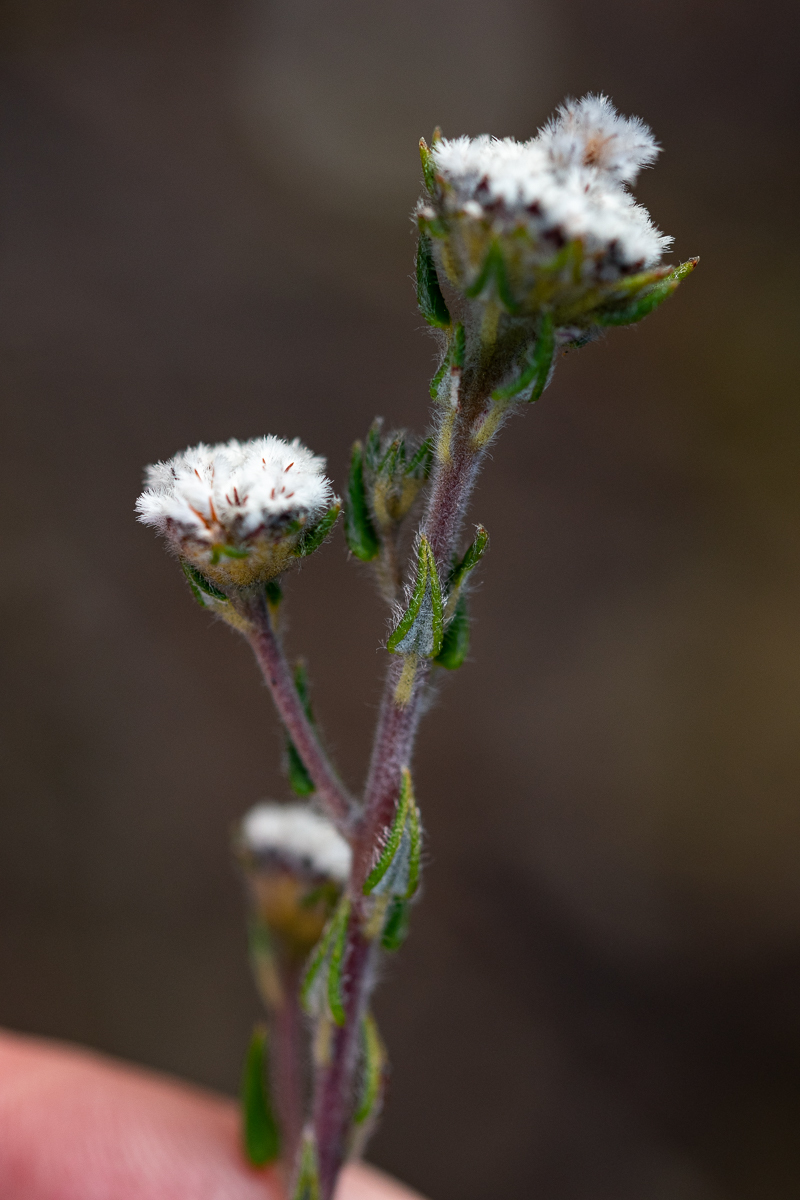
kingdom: Plantae
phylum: Tracheophyta
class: Magnoliopsida
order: Rosales
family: Rhamnaceae
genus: Phylica
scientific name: Phylica atrata
